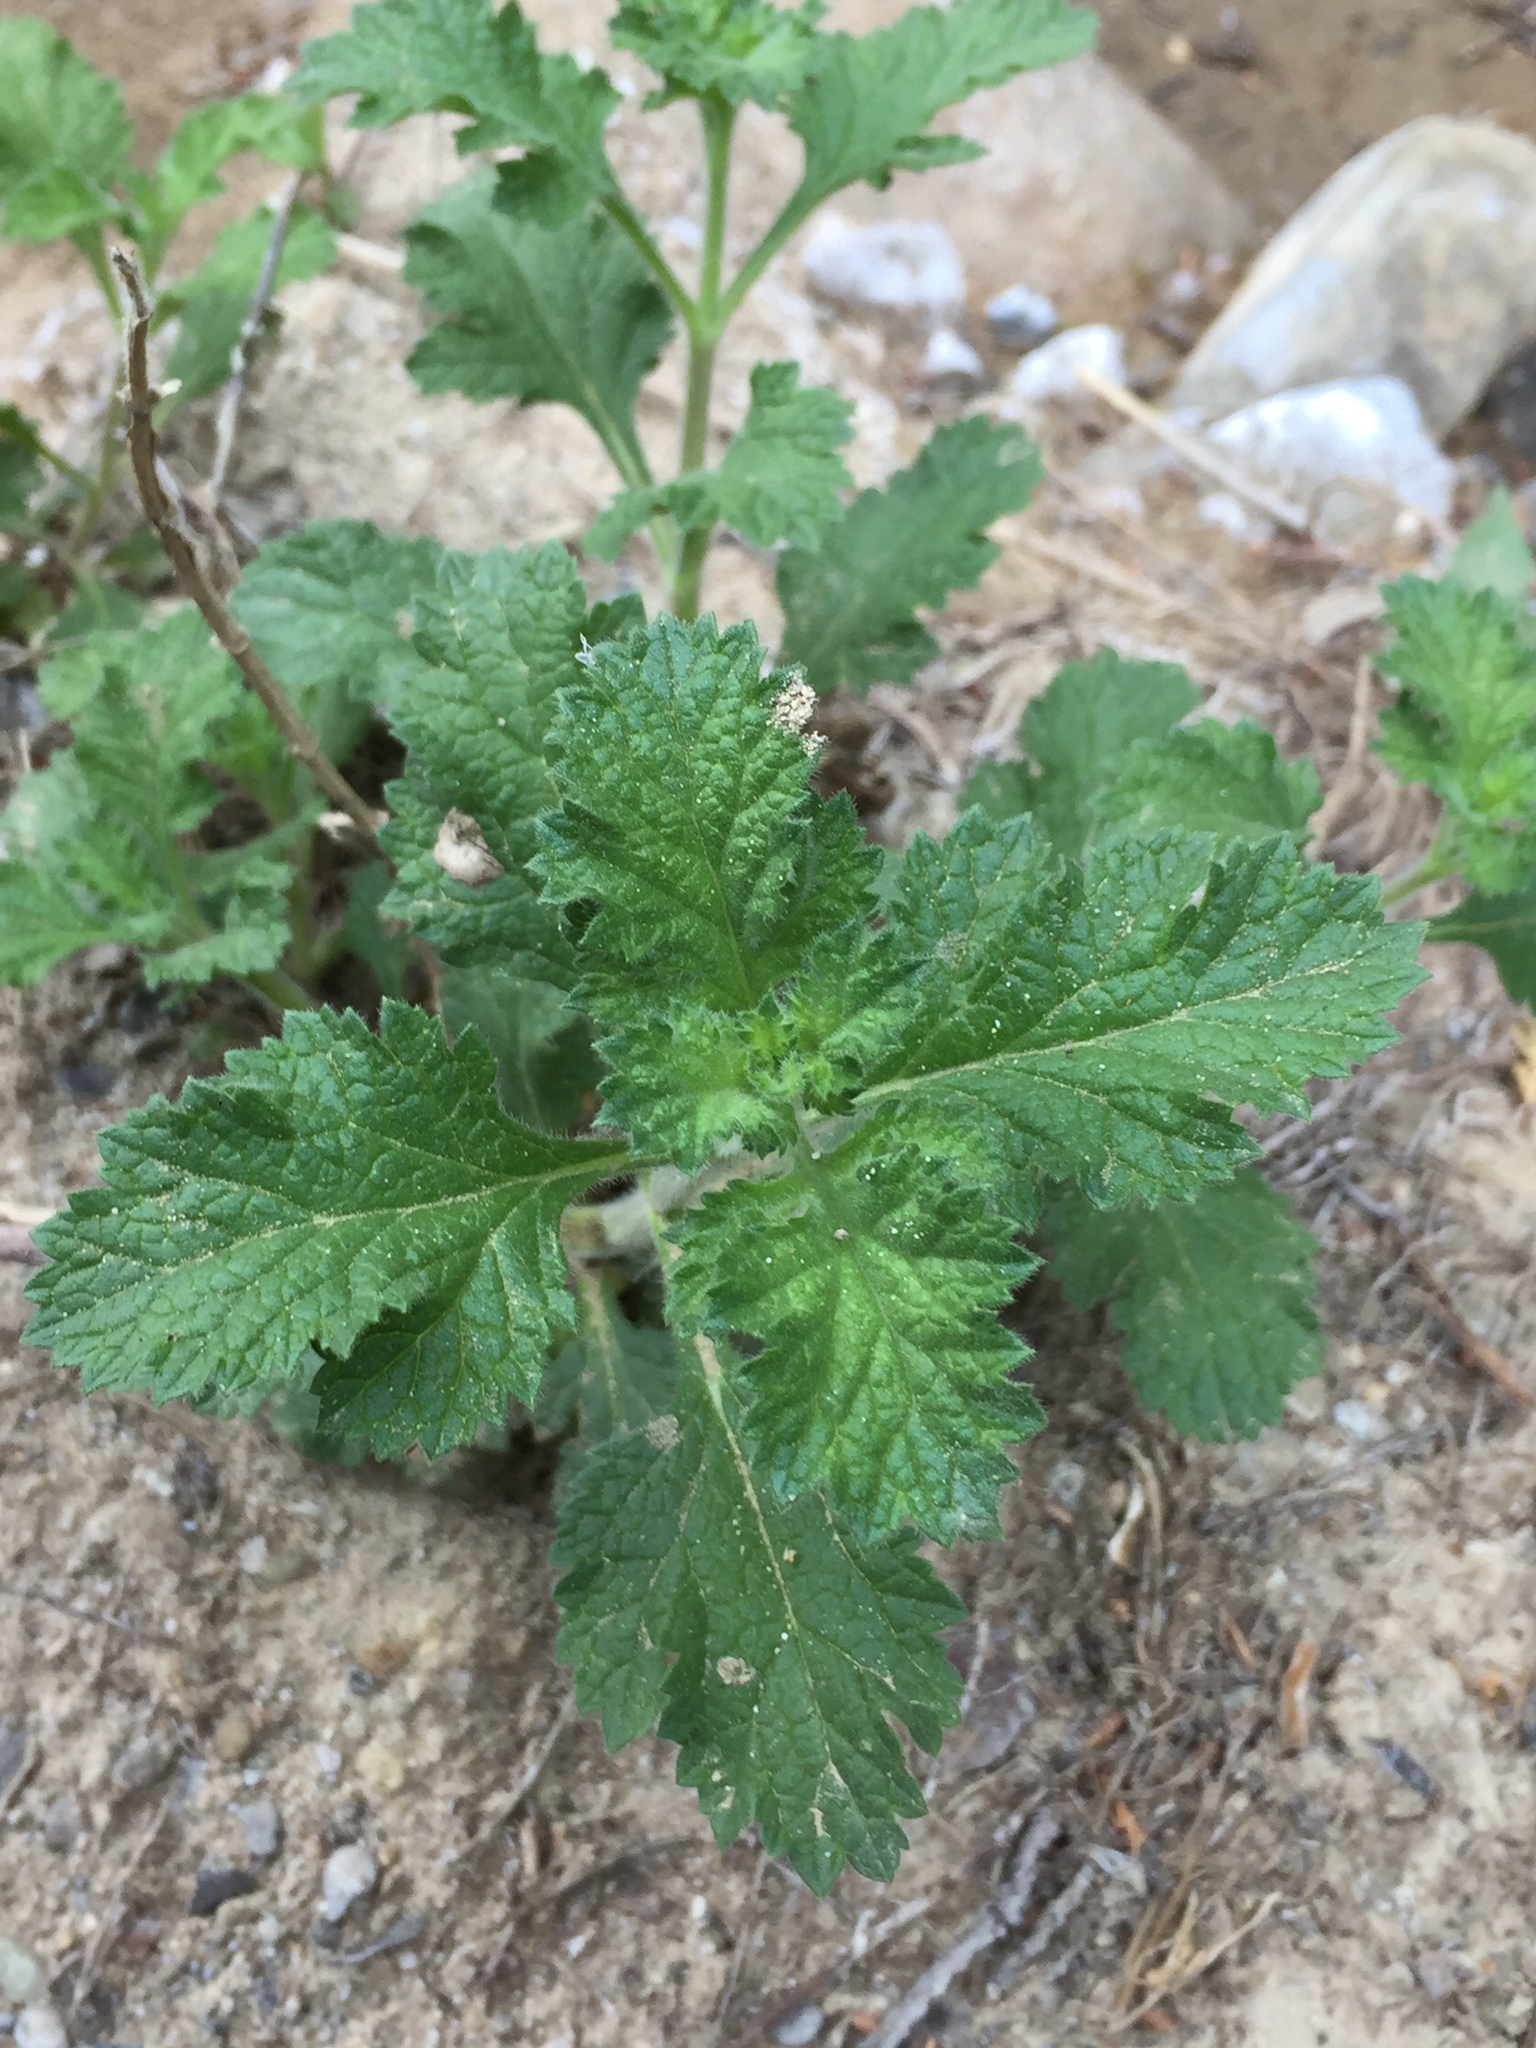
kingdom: Plantae
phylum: Tracheophyta
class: Magnoliopsida
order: Lamiales
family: Verbenaceae
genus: Verbena
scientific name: Verbena lasiostachys
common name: Vervain
